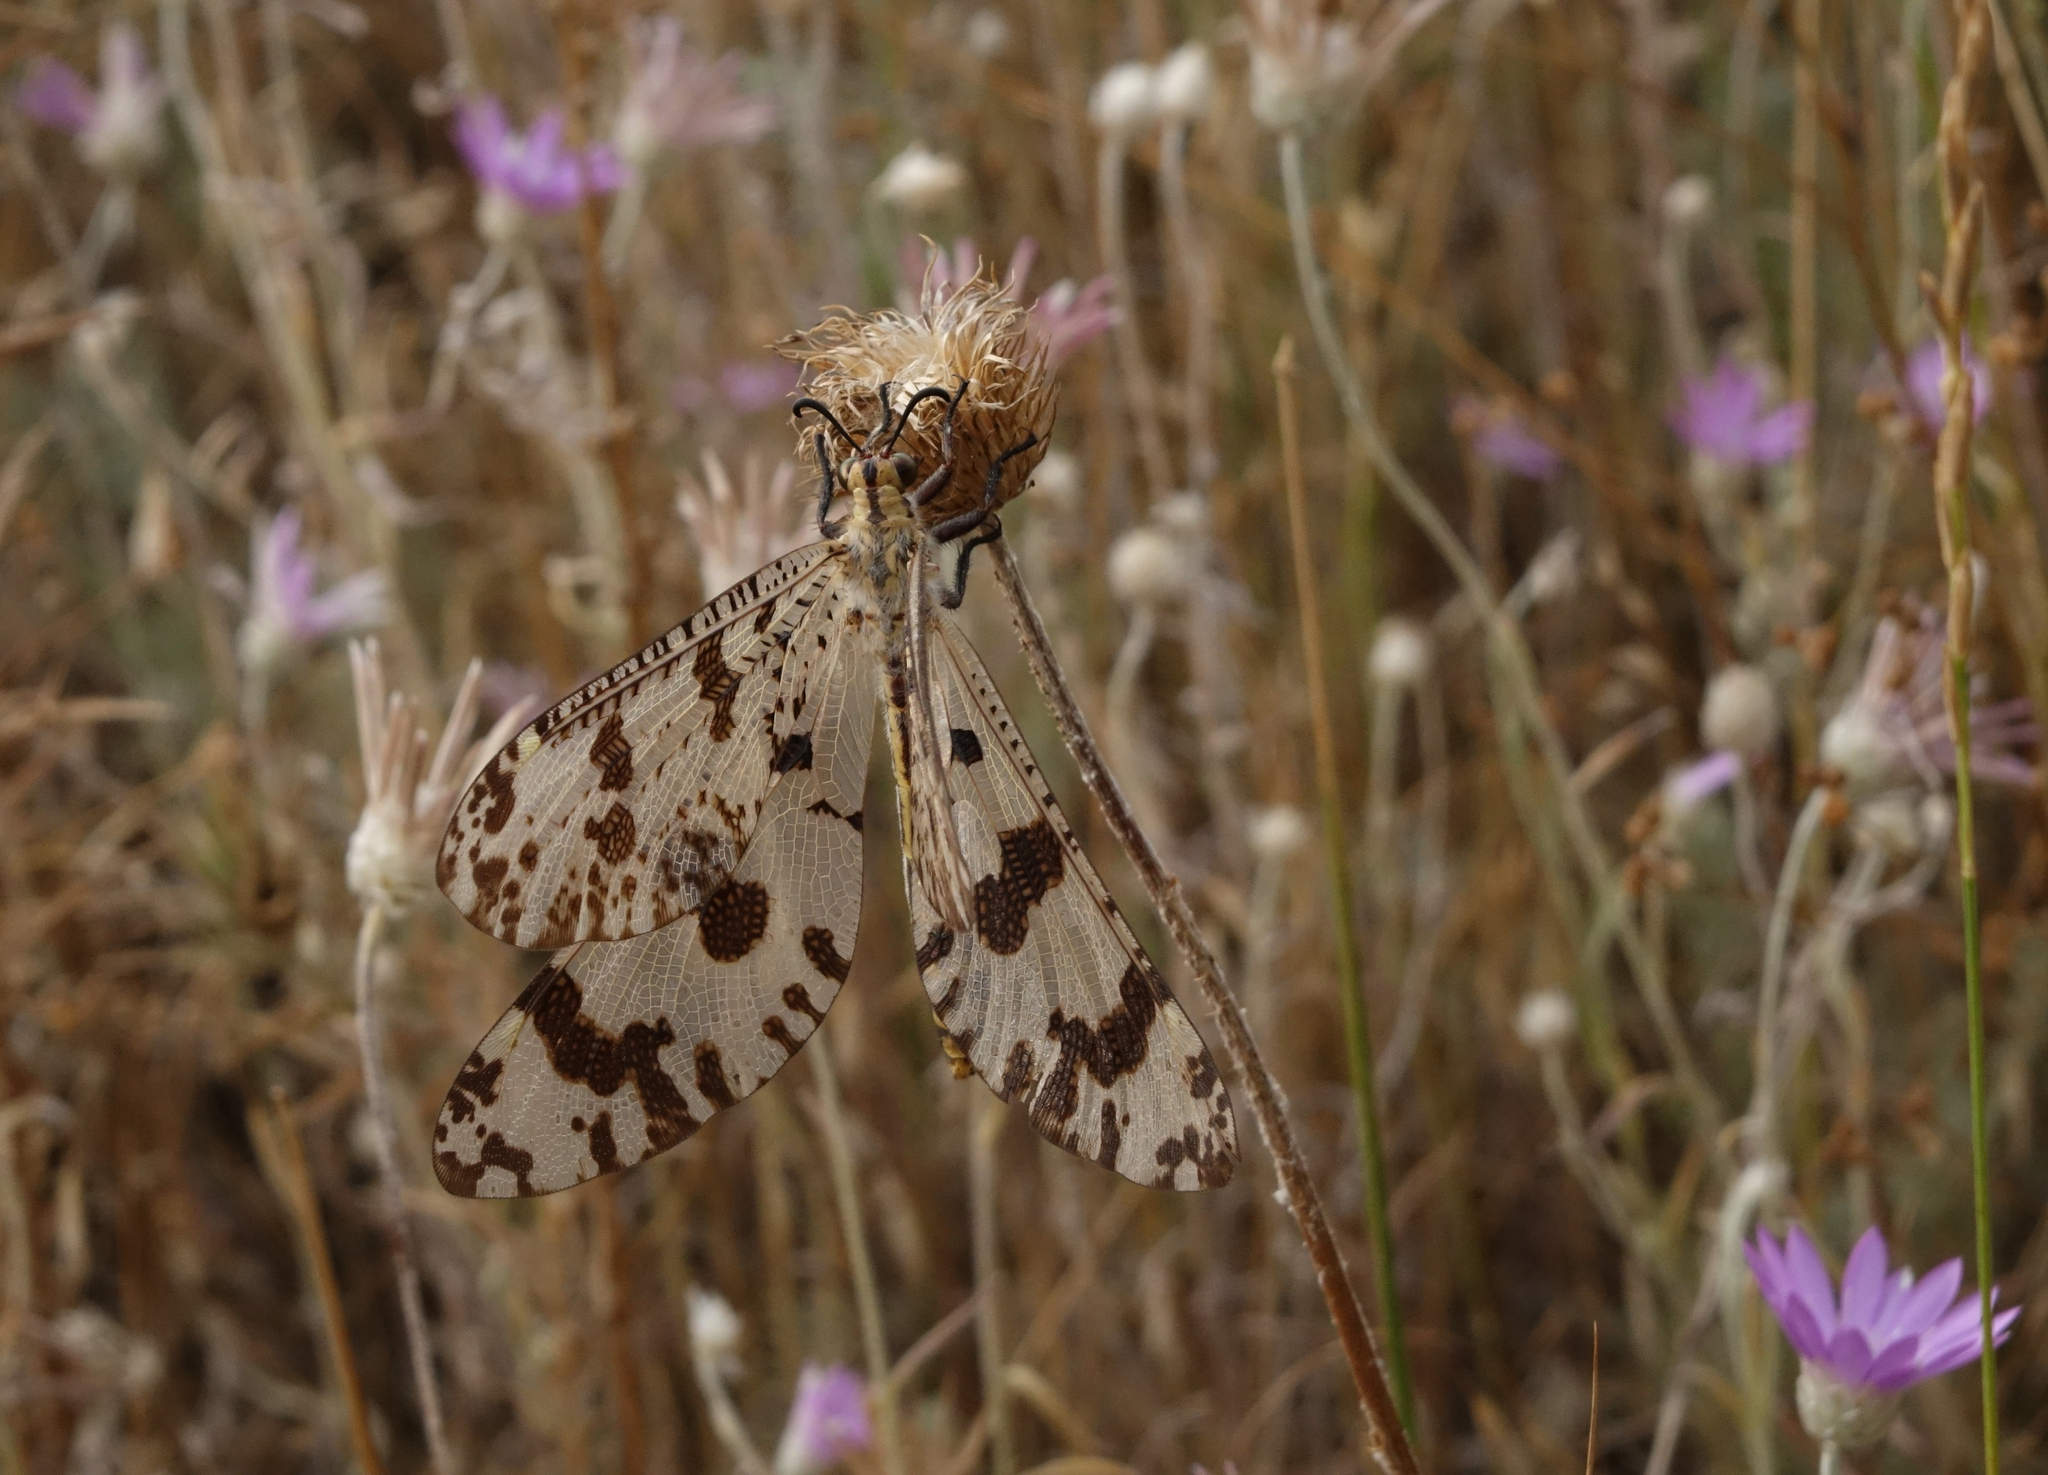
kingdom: Animalia
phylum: Arthropoda
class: Insecta
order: Neuroptera
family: Myrmeleontidae
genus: Palpares
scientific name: Palpares libelluloides
